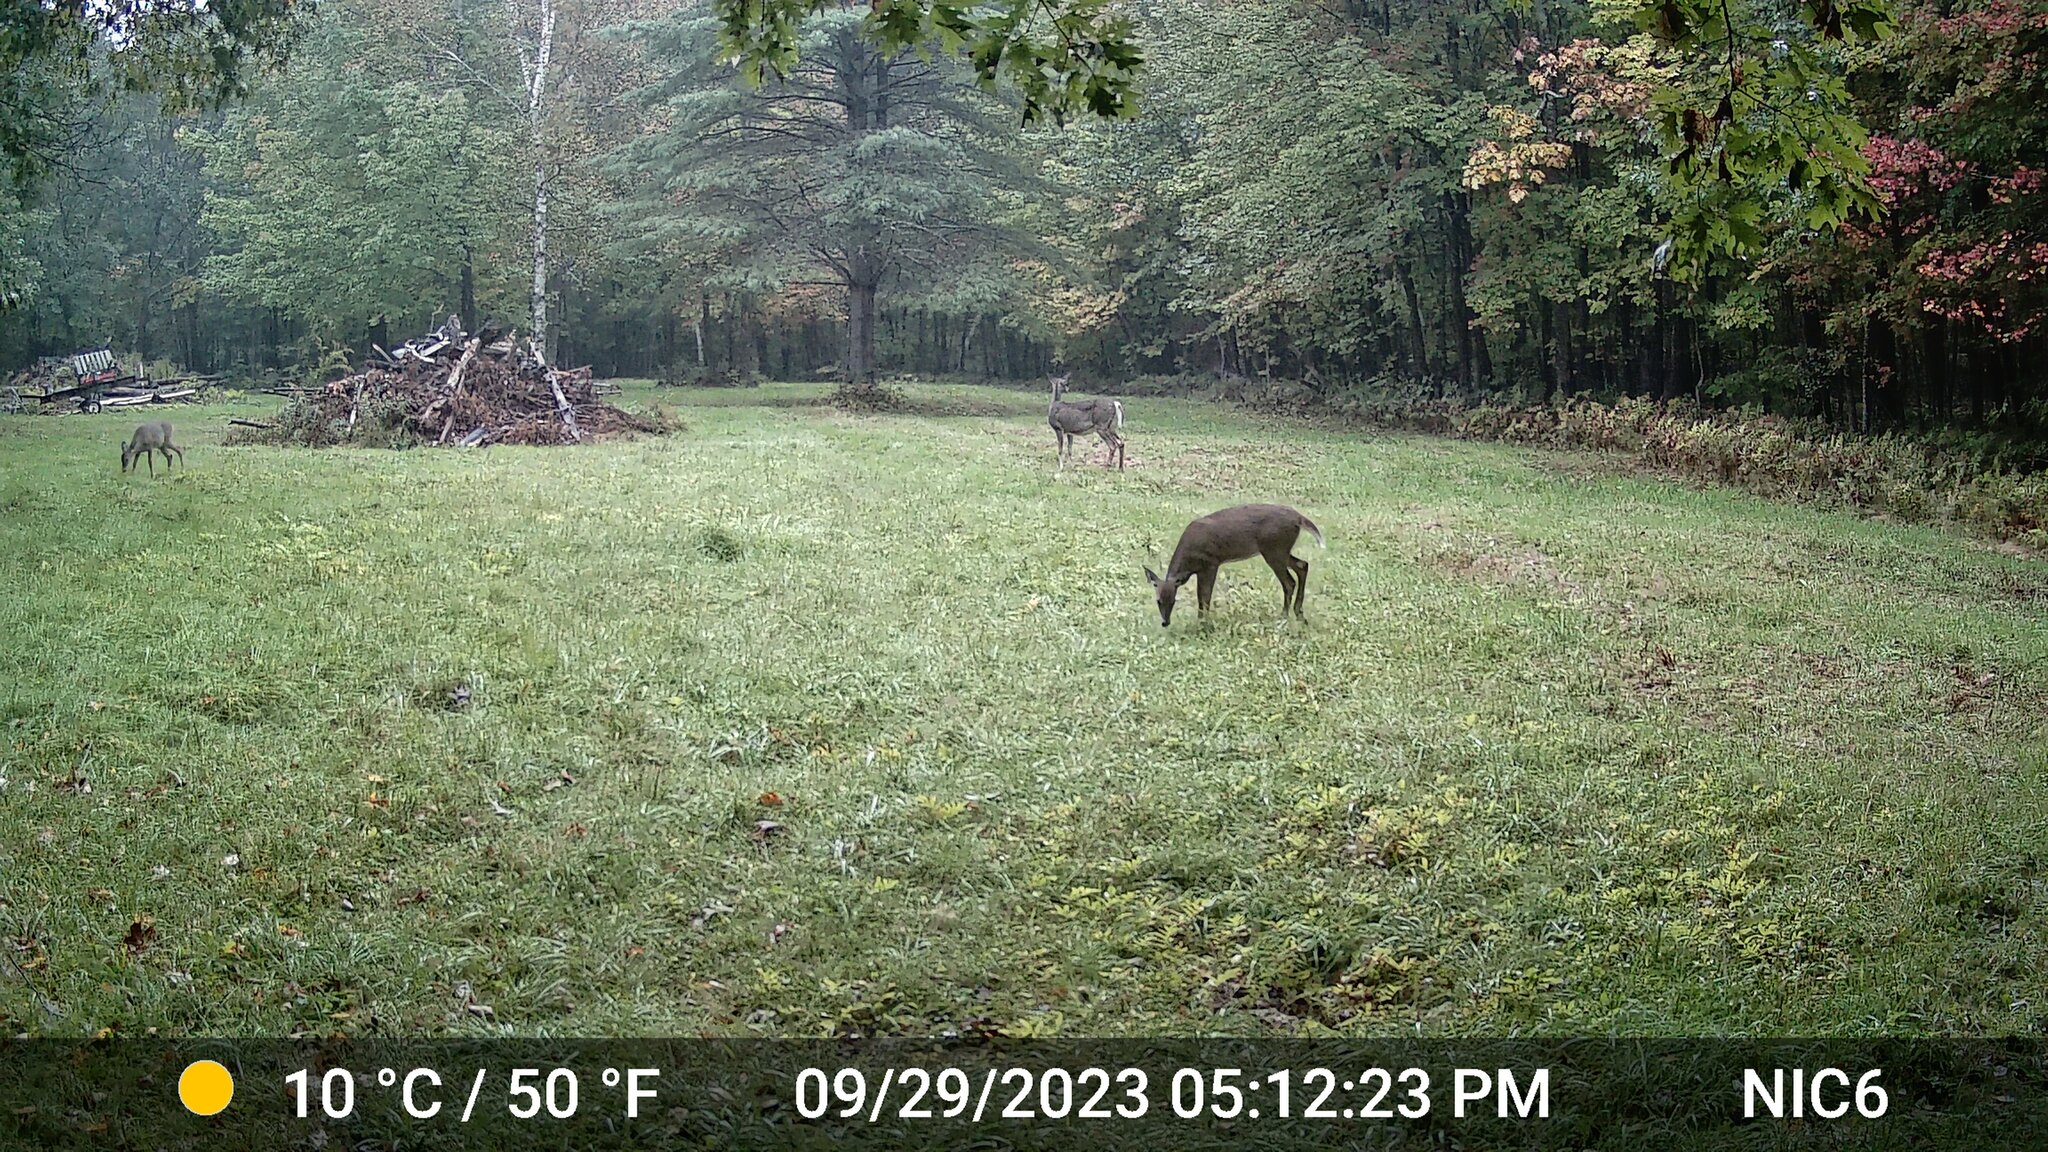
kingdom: Animalia
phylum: Chordata
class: Mammalia
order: Artiodactyla
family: Cervidae
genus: Odocoileus
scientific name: Odocoileus virginianus
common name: White-tailed deer
